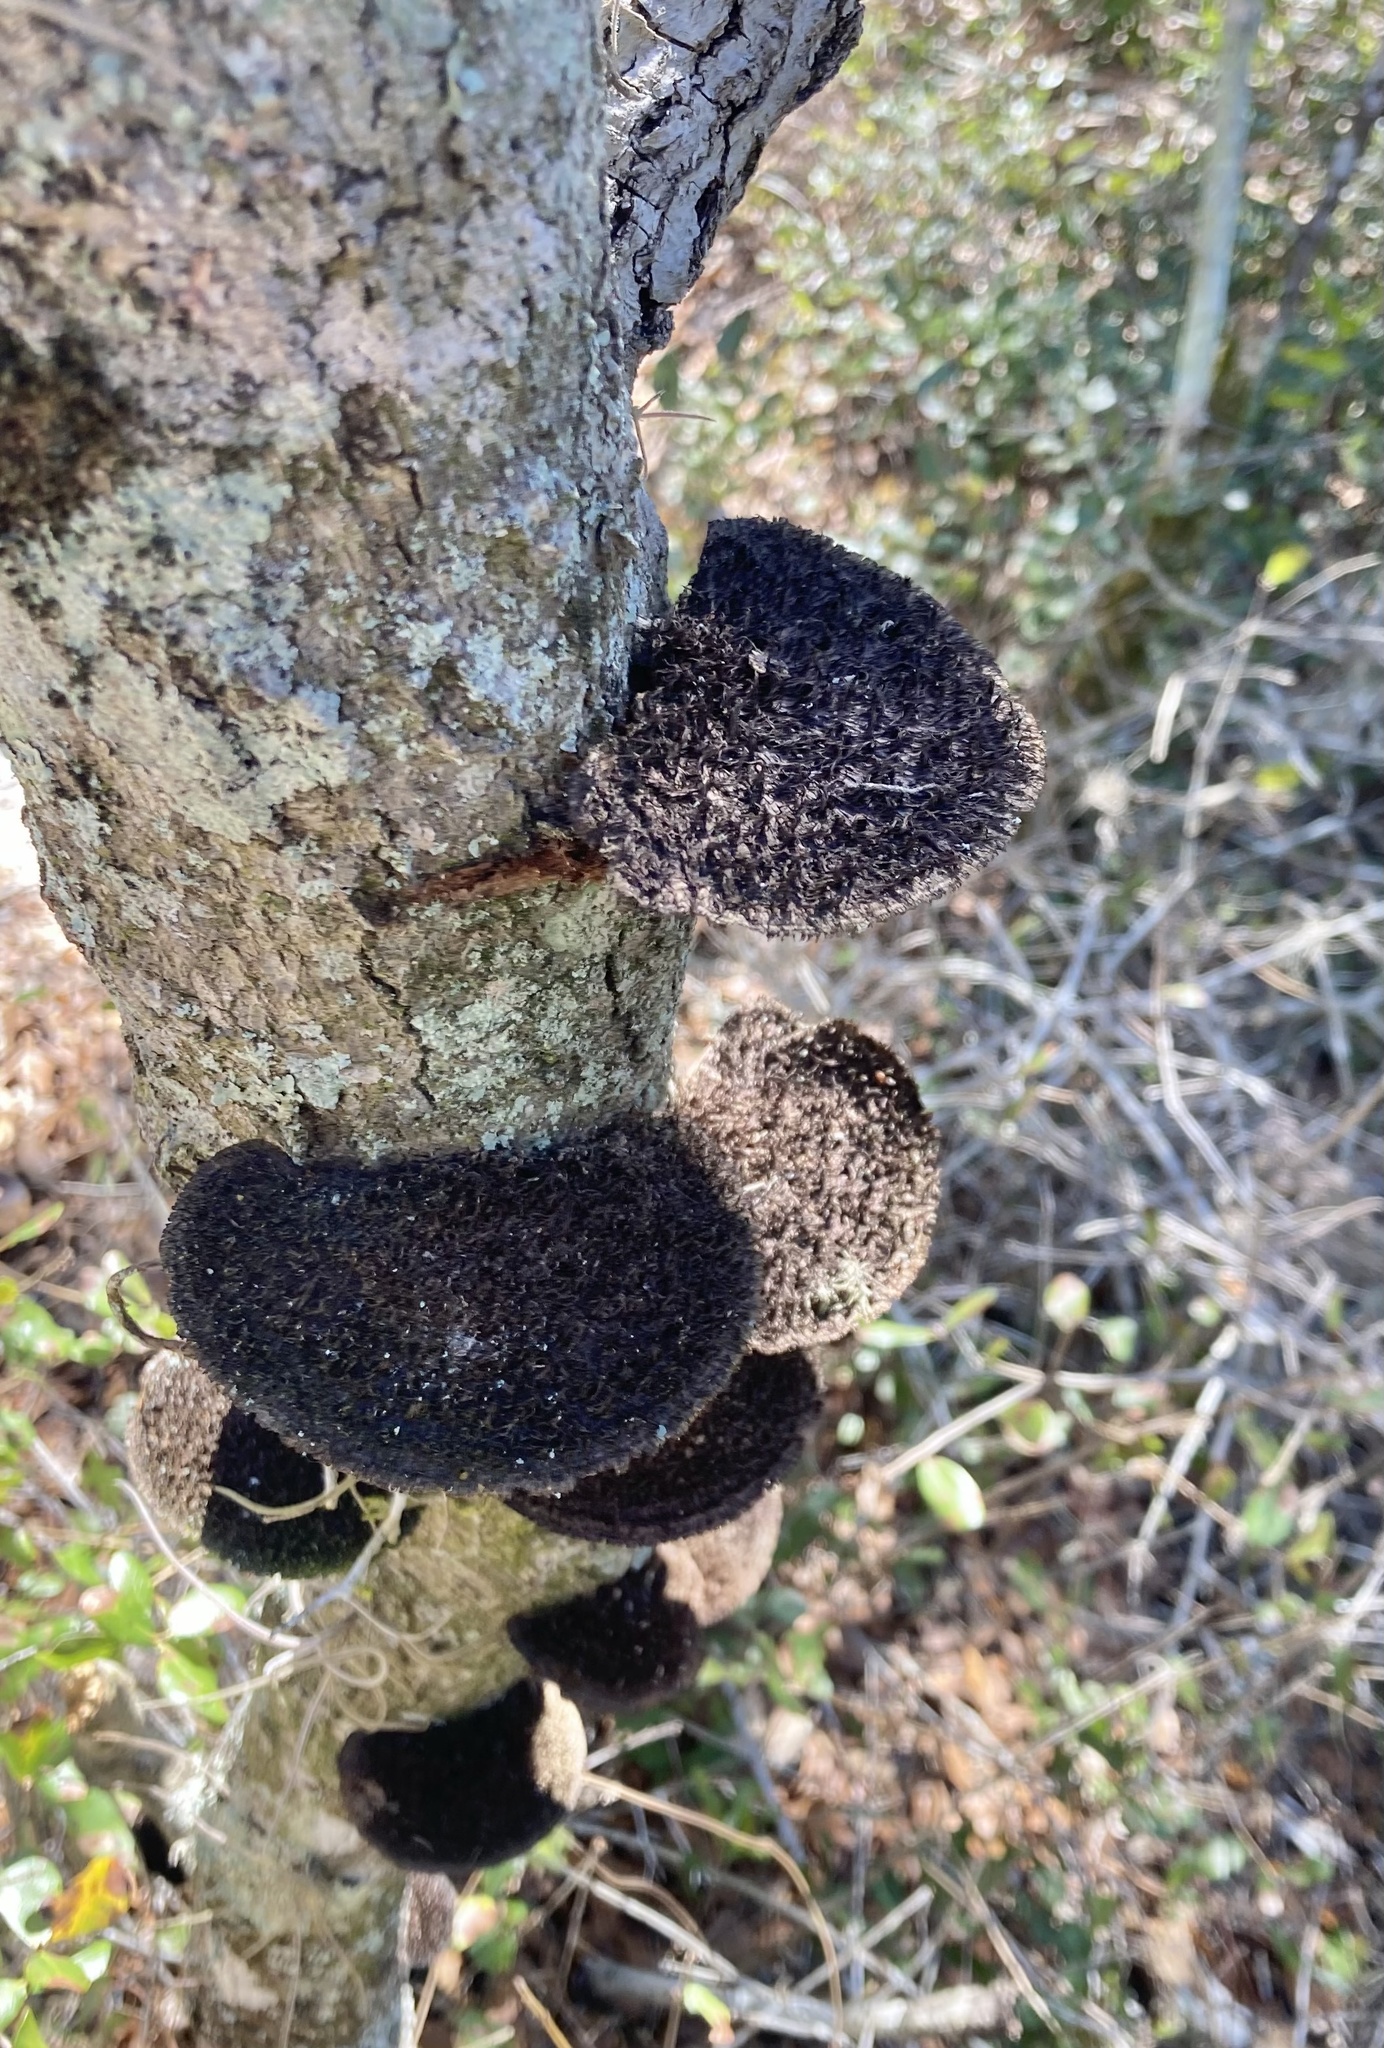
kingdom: Fungi
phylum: Basidiomycota
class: Agaricomycetes
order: Polyporales
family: Cerrenaceae
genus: Cerrena
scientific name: Cerrena hydnoides
